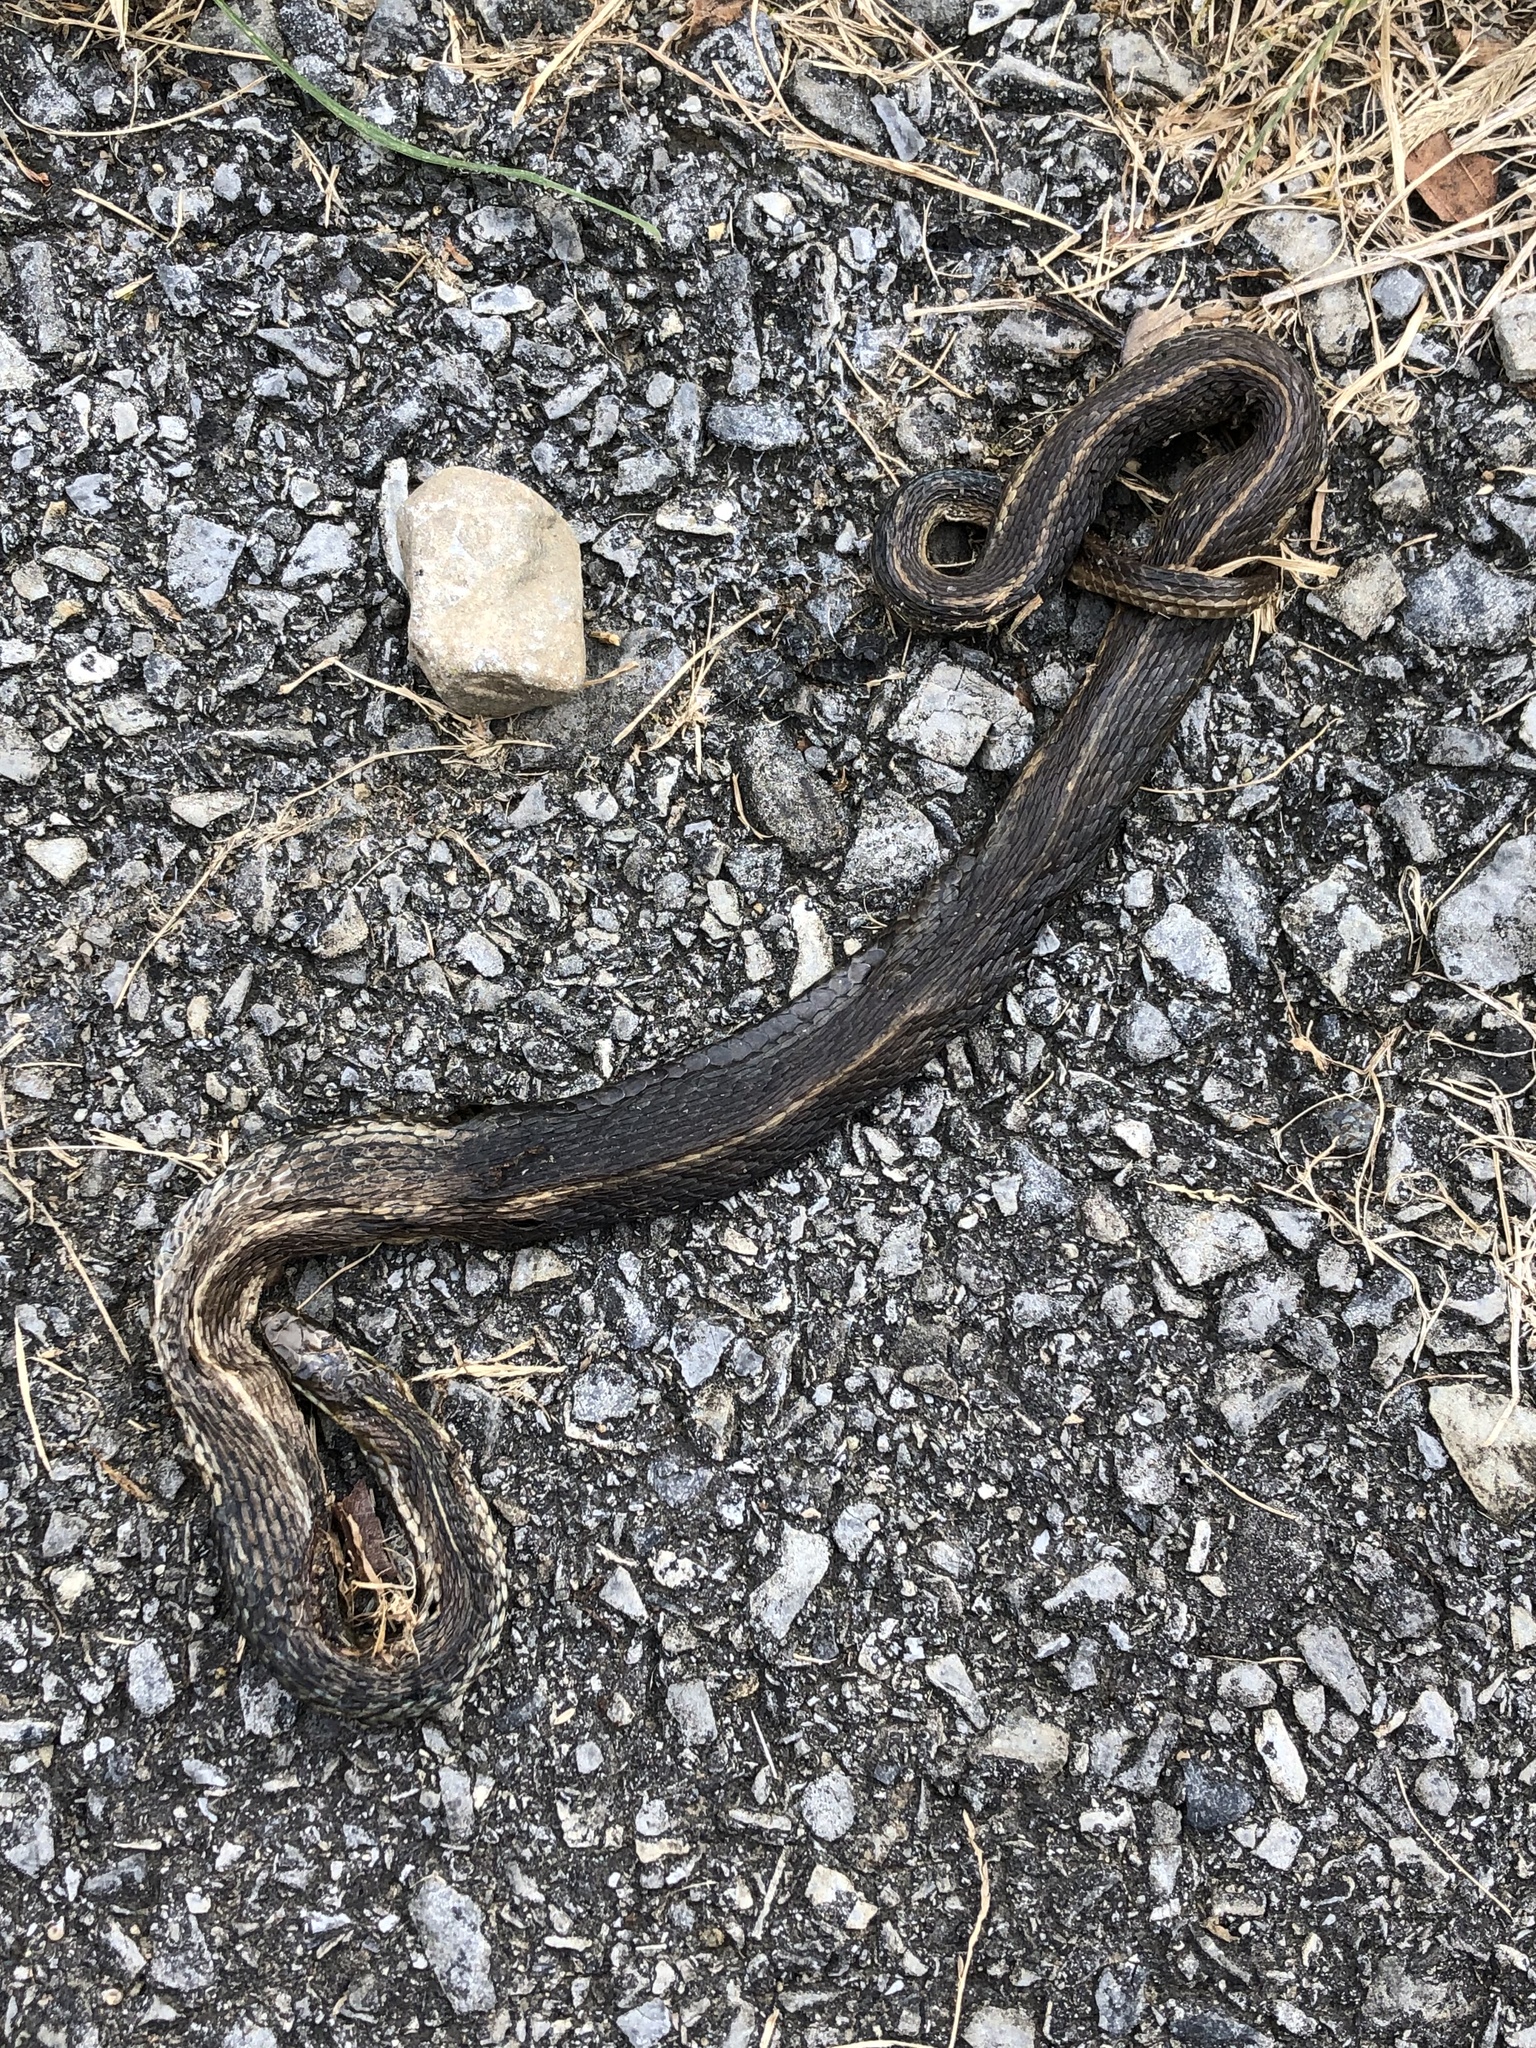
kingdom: Animalia
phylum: Chordata
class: Squamata
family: Colubridae
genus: Thamnophis
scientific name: Thamnophis sirtalis
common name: Common garter snake
